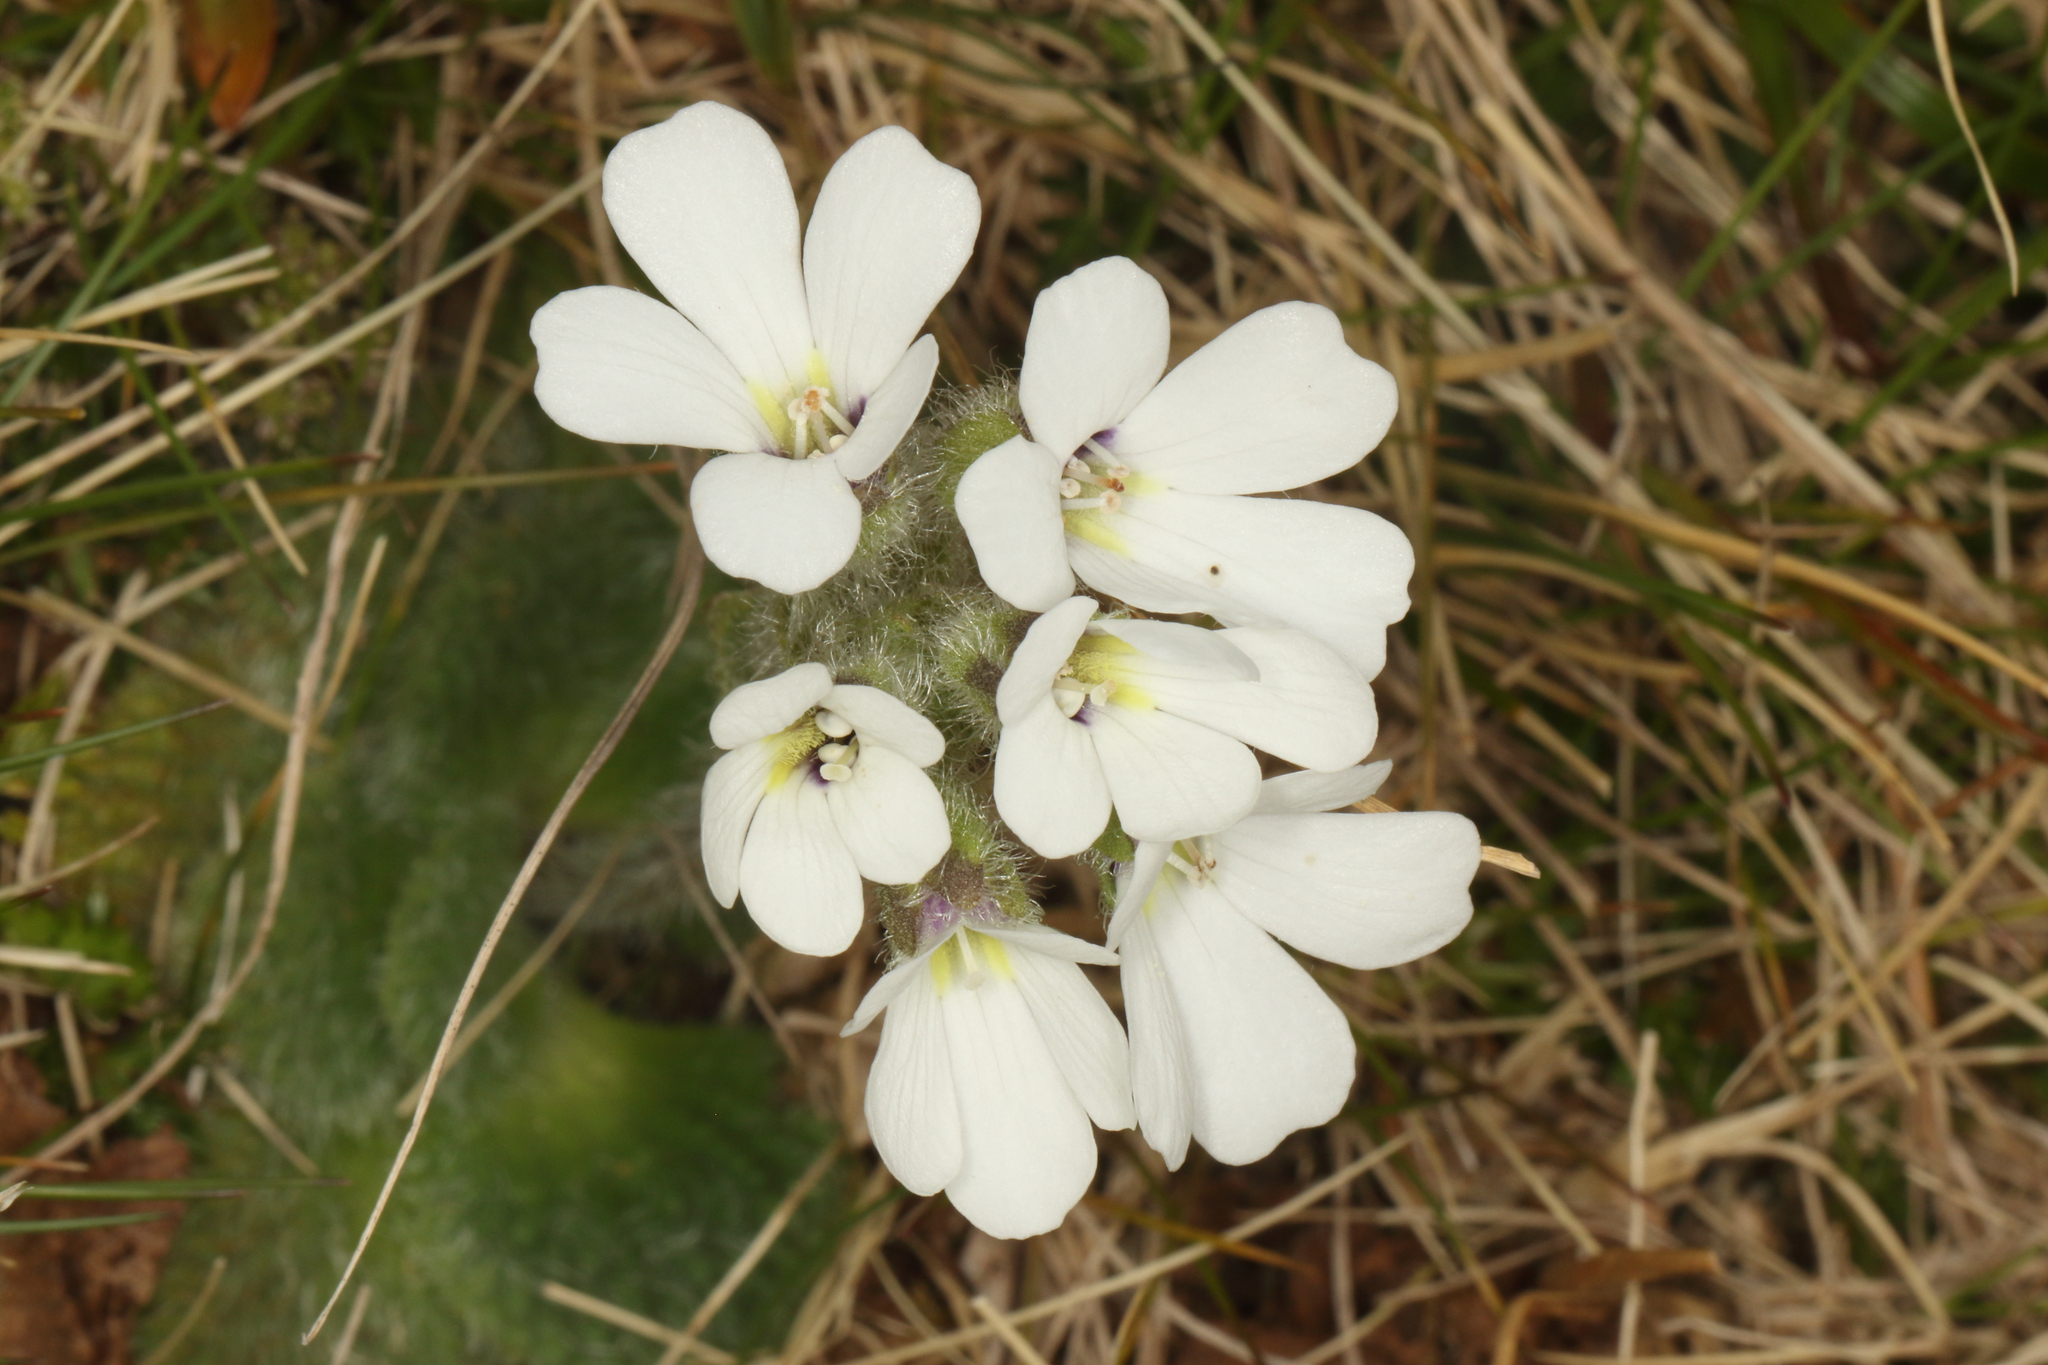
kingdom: Plantae
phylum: Tracheophyta
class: Magnoliopsida
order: Lamiales
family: Plantaginaceae
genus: Ourisia
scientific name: Ourisia sessilifolia
